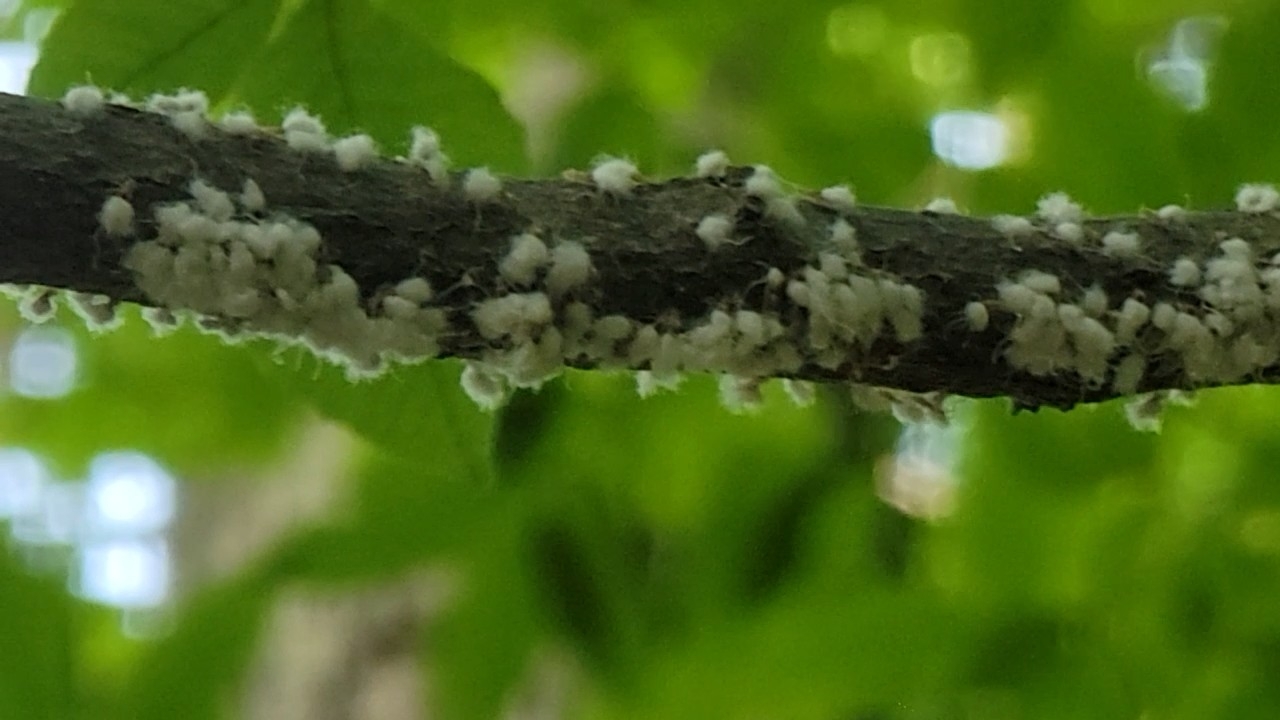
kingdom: Animalia
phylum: Arthropoda
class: Insecta
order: Hemiptera
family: Aphididae
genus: Grylloprociphilus
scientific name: Grylloprociphilus imbricator
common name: Beech blight aphid
